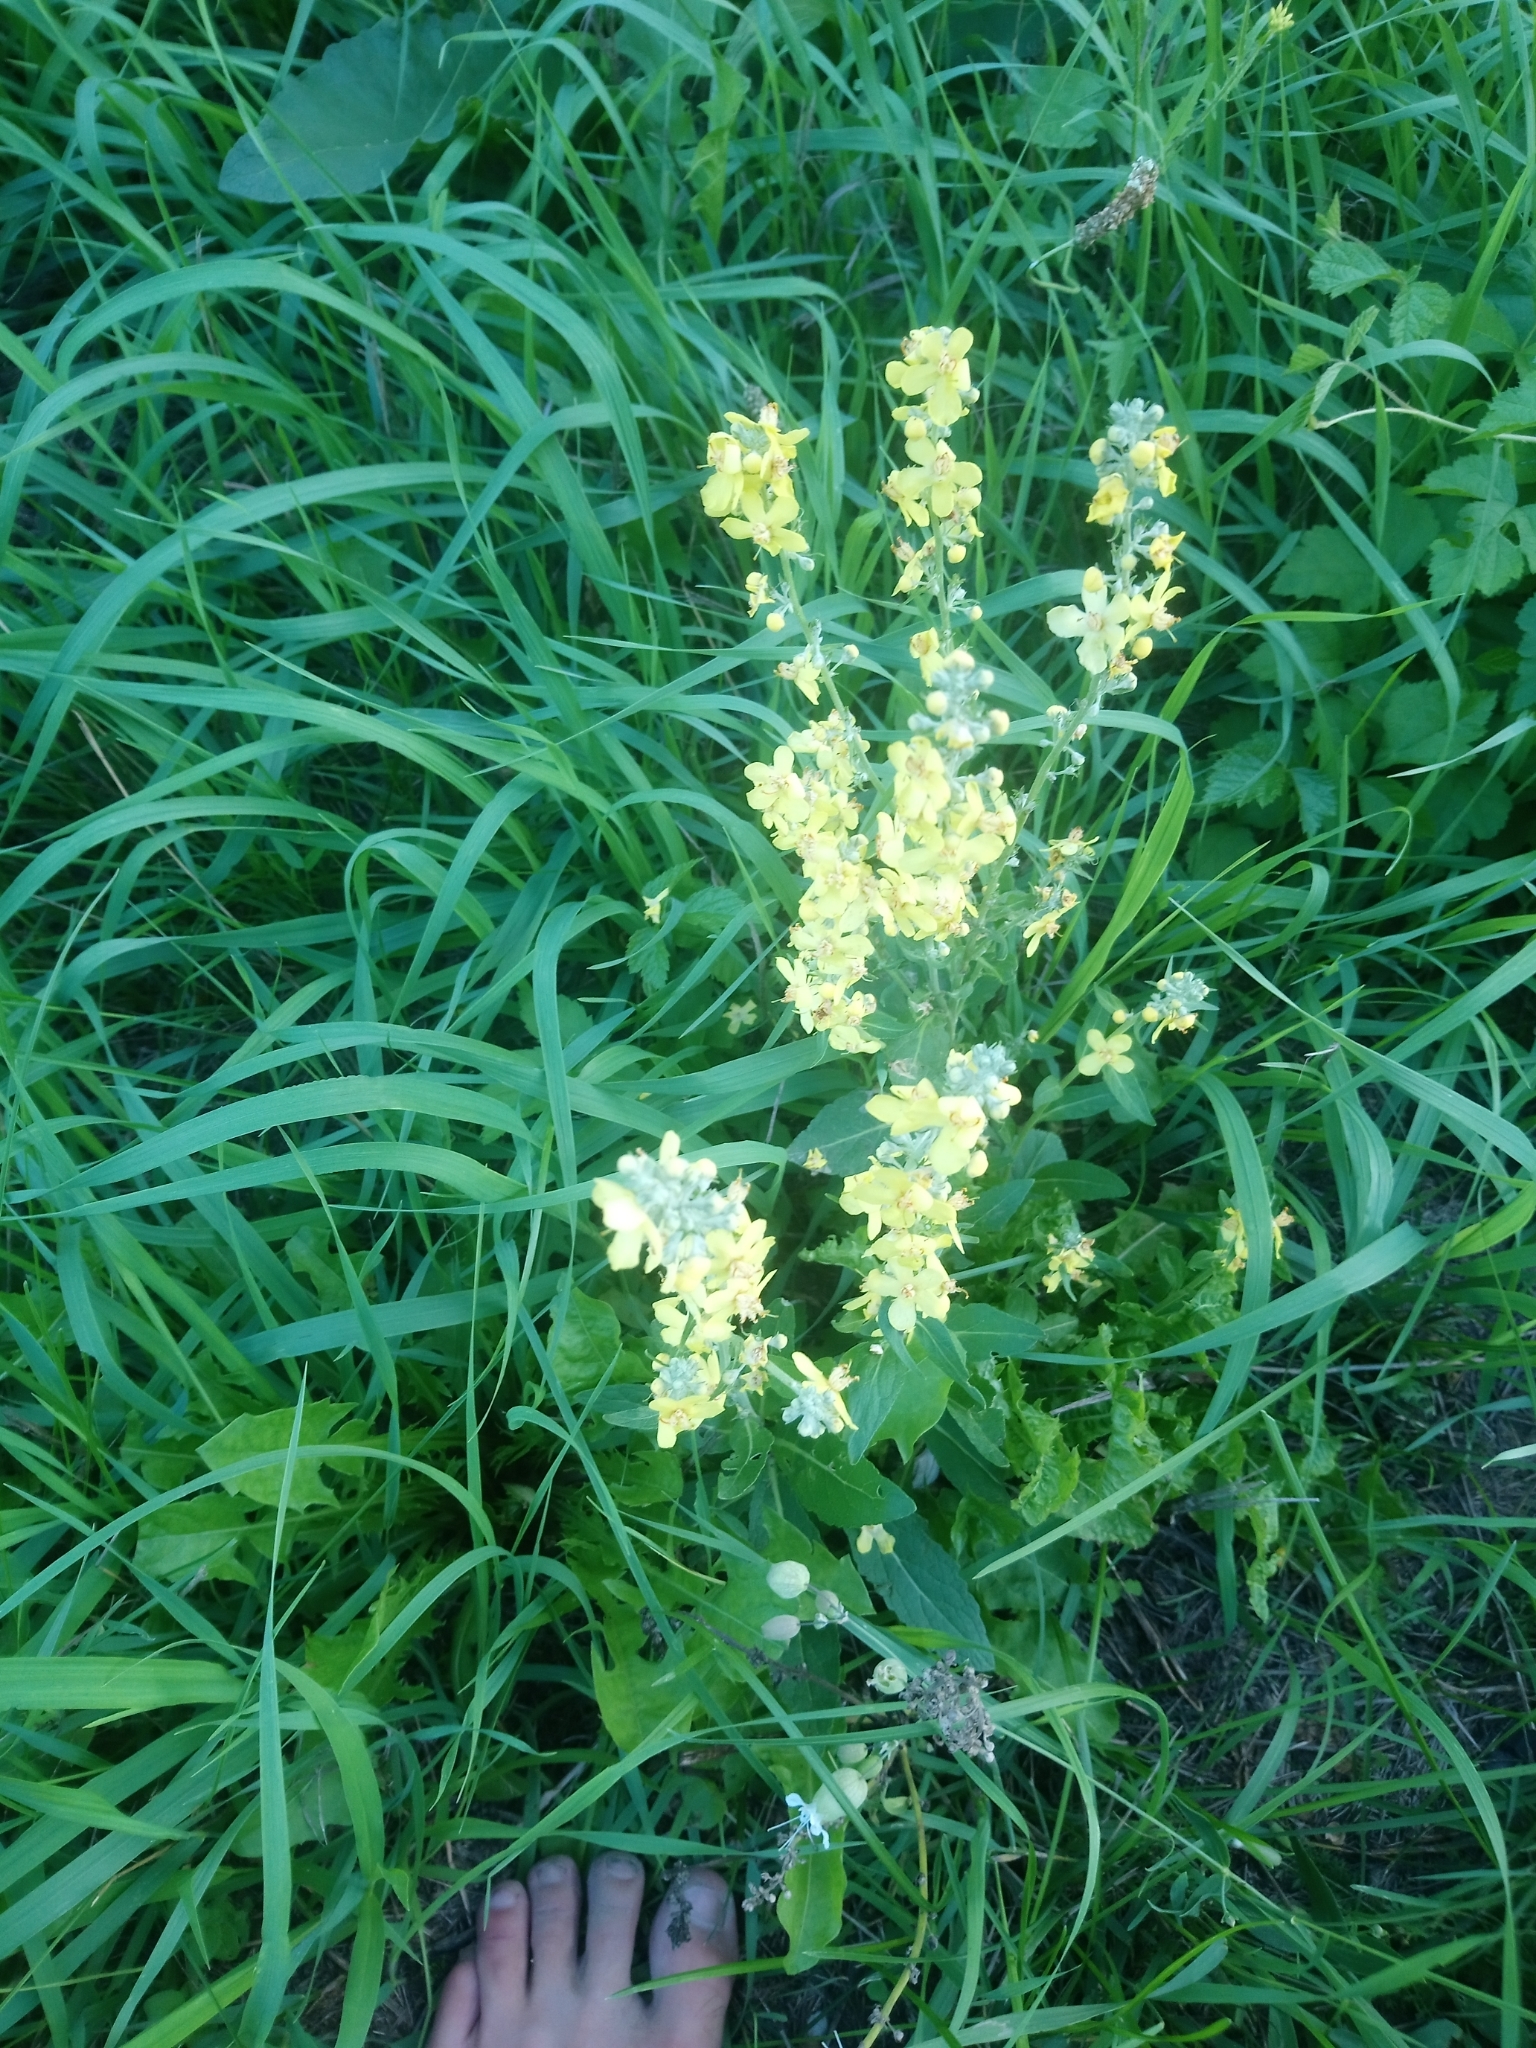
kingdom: Plantae
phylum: Tracheophyta
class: Magnoliopsida
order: Lamiales
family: Scrophulariaceae
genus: Verbascum
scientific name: Verbascum lychnitis
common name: White mullein
